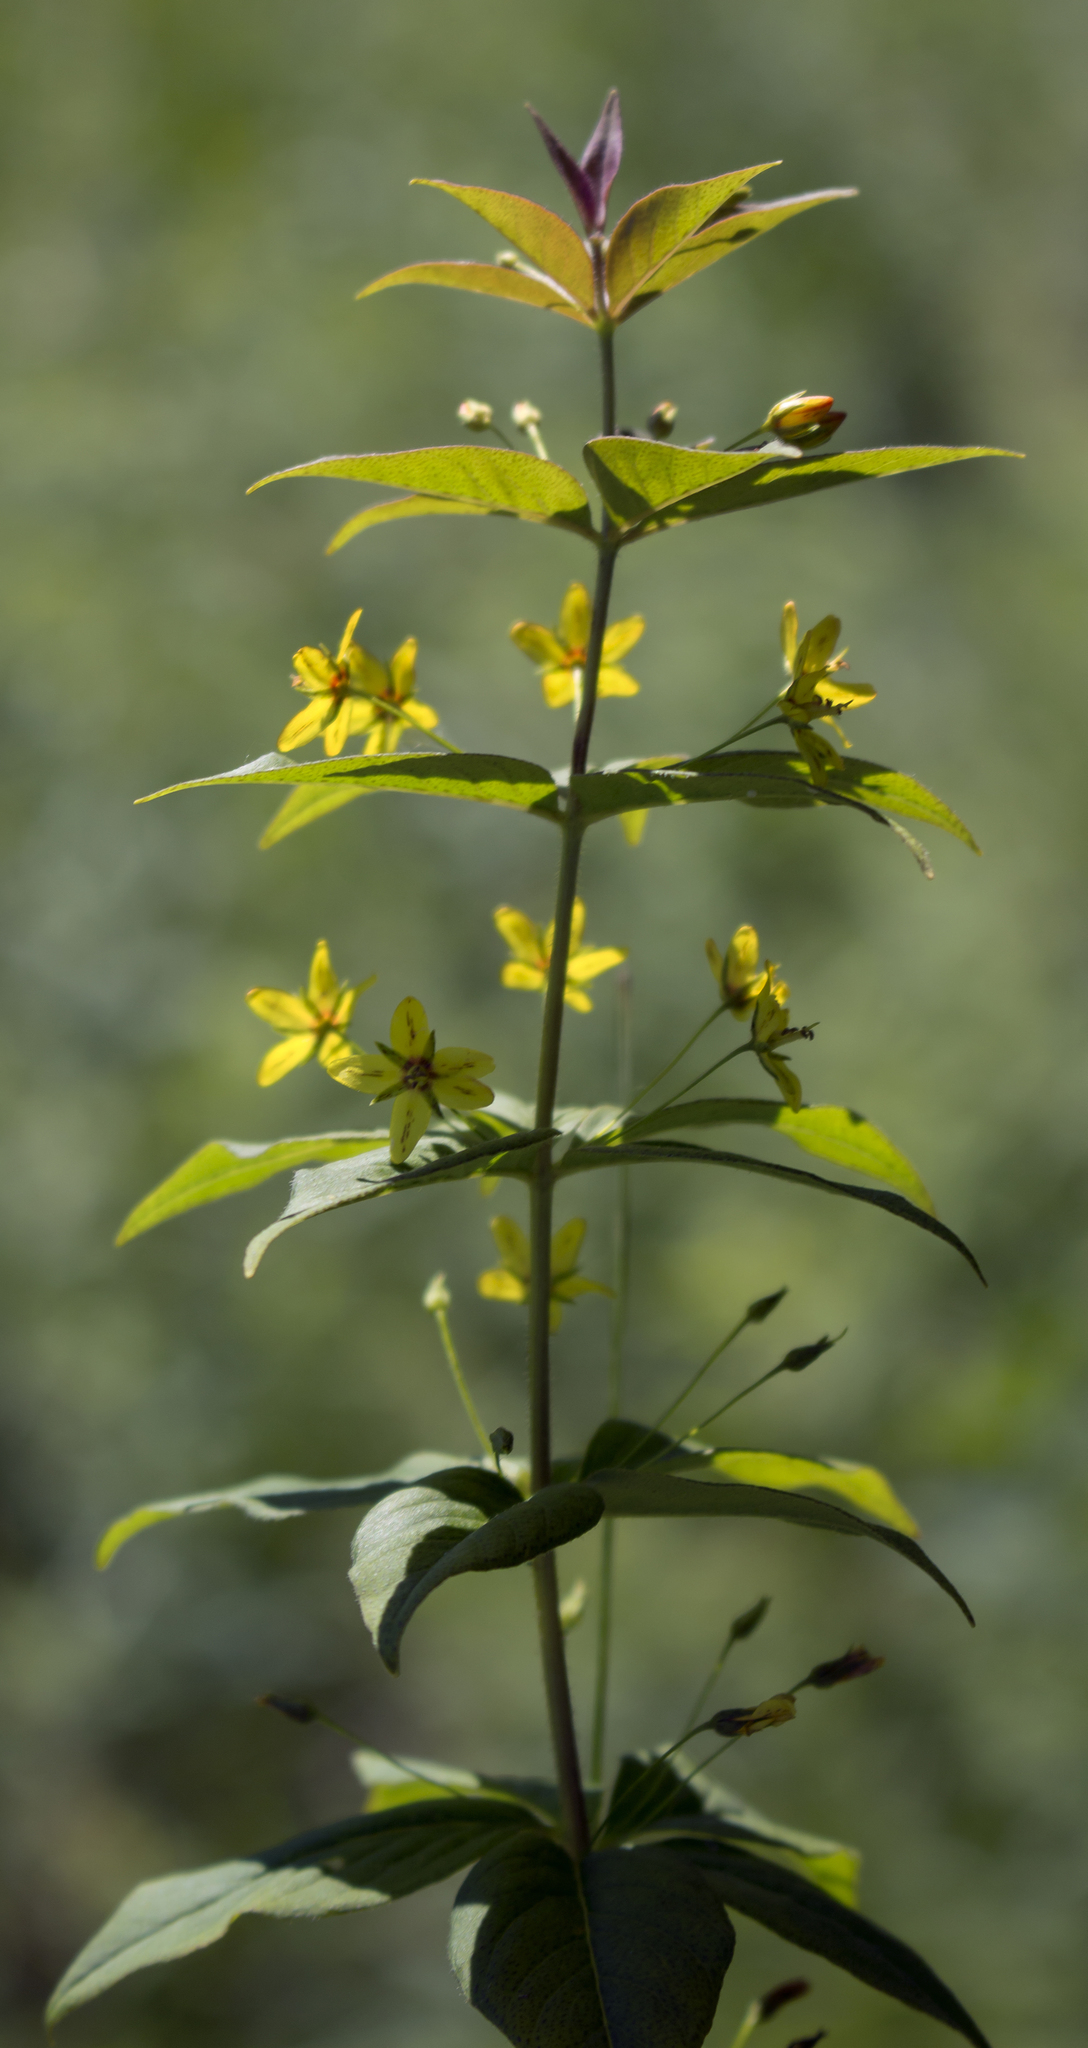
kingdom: Plantae
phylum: Tracheophyta
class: Magnoliopsida
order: Ericales
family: Primulaceae
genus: Lysimachia
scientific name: Lysimachia quadrifolia
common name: Whorled loosestrife
